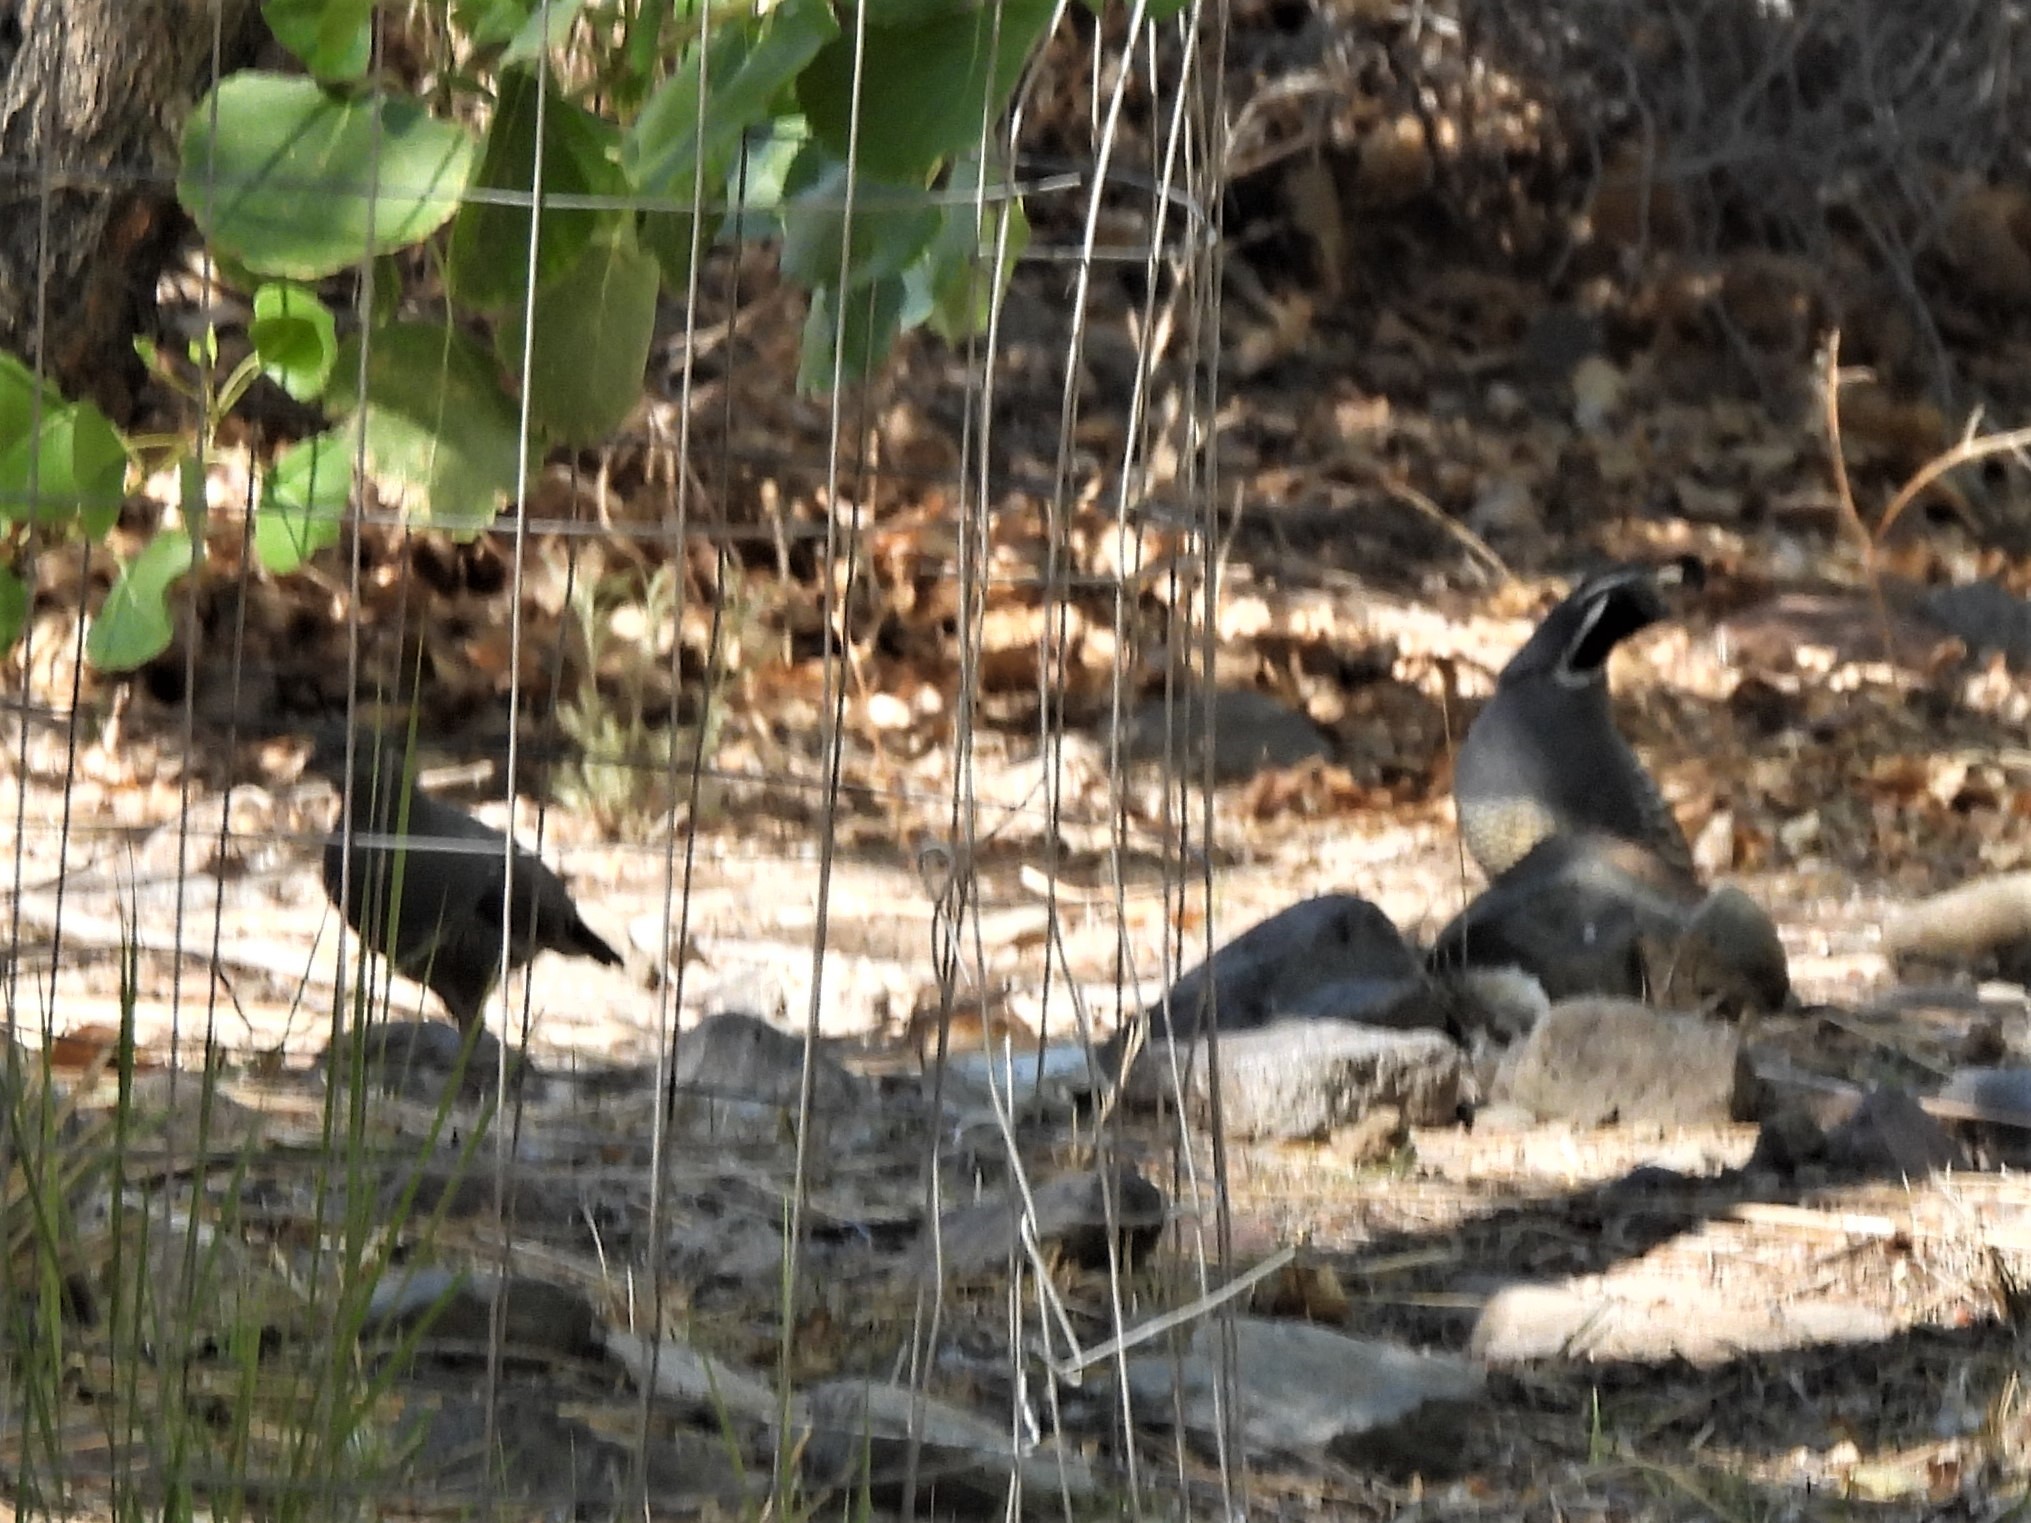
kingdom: Animalia
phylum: Chordata
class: Aves
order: Galliformes
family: Odontophoridae
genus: Callipepla
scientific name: Callipepla californica
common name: California quail
